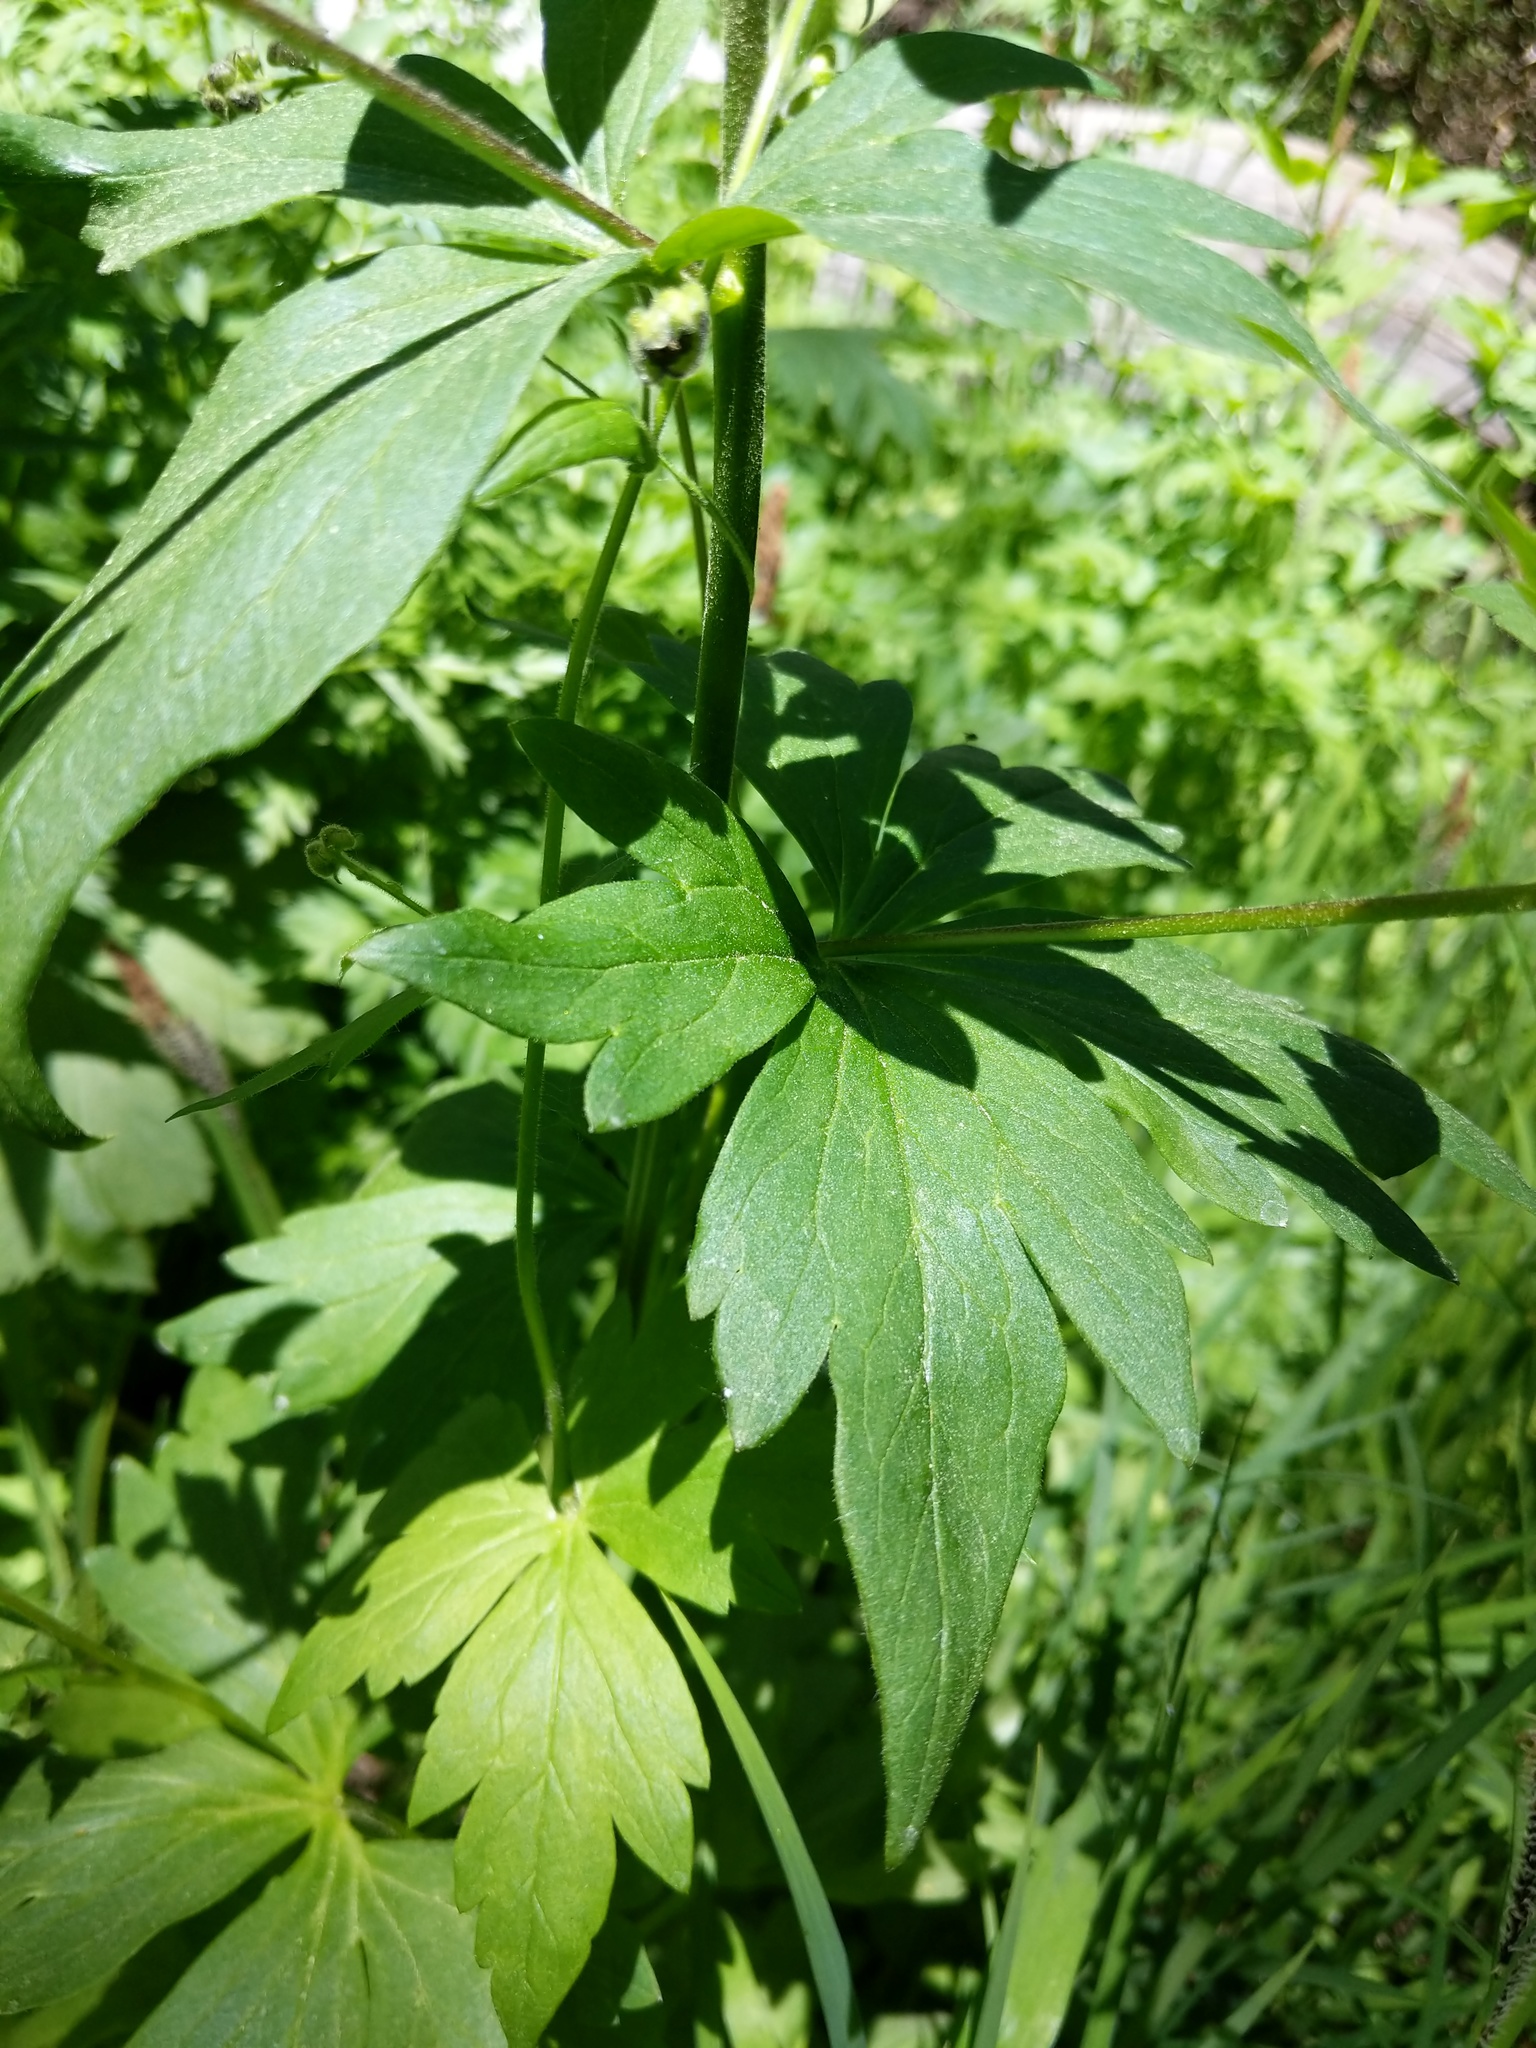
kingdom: Plantae
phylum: Tracheophyta
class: Magnoliopsida
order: Ranunculales
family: Ranunculaceae
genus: Aconitum
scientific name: Aconitum columbianum
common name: Columbia aconite
